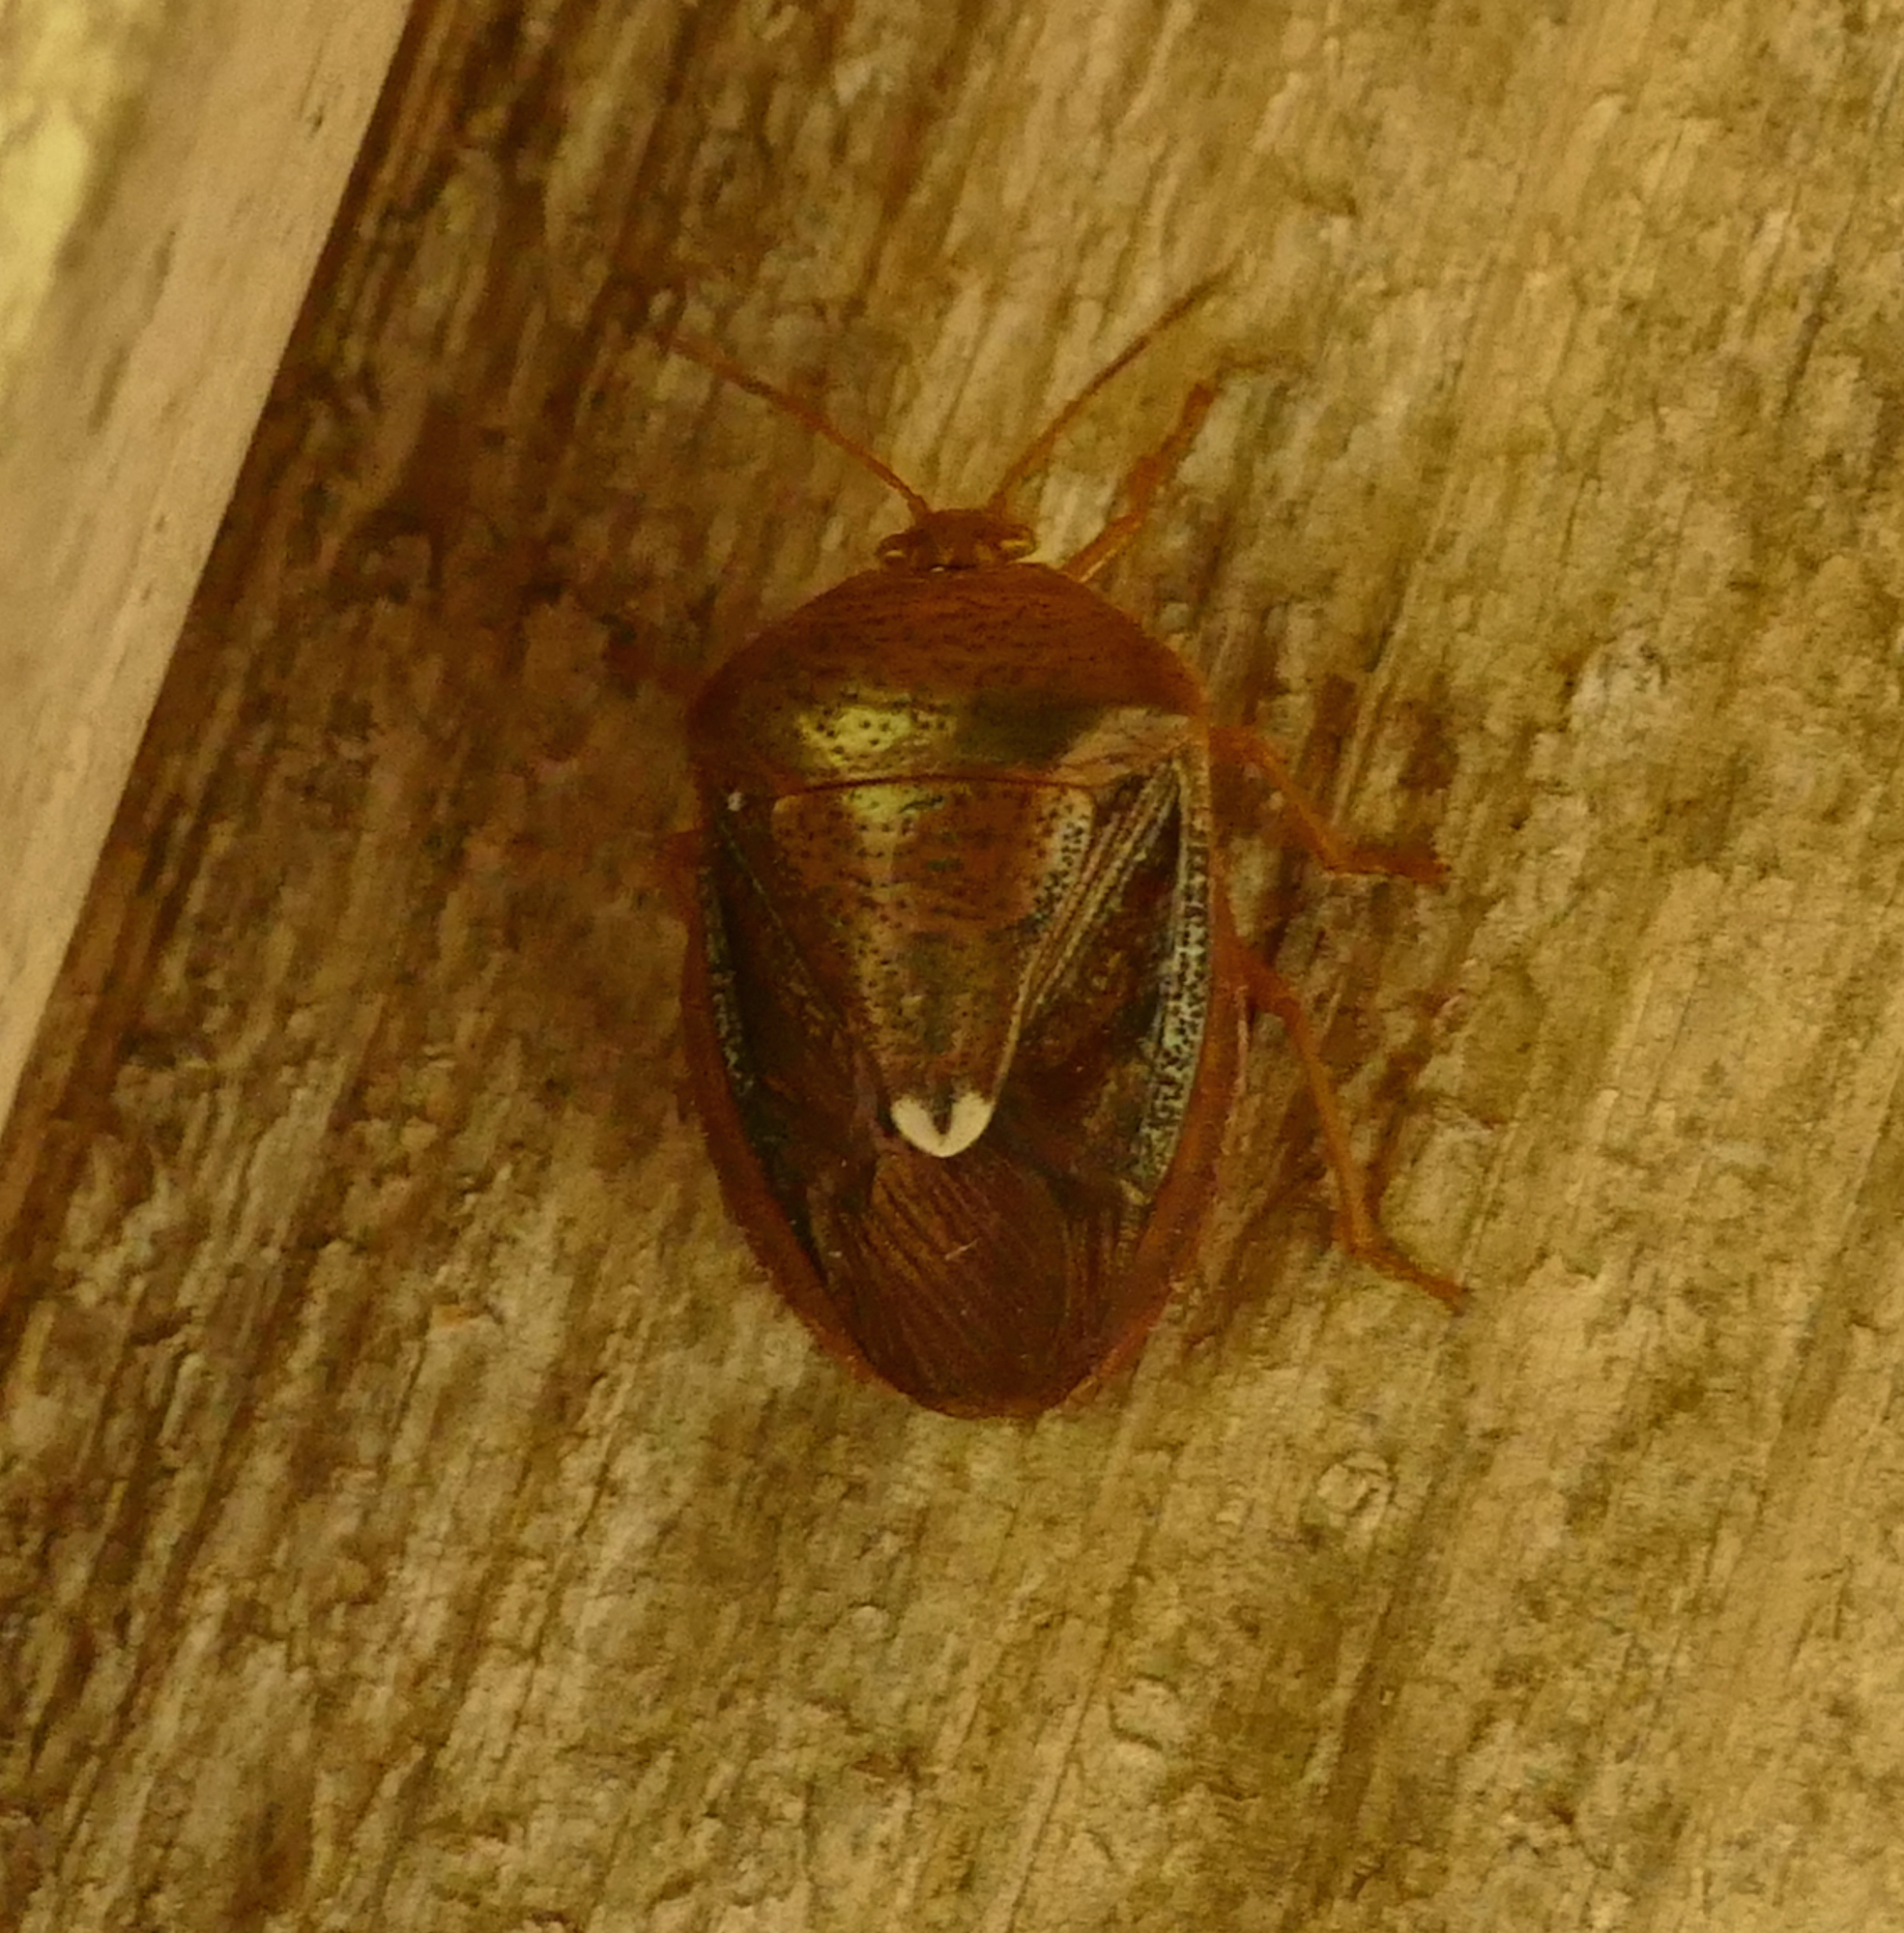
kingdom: Animalia
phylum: Arthropoda
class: Insecta
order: Hemiptera
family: Pentatomidae
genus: Edessa
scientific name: Edessa bifida
